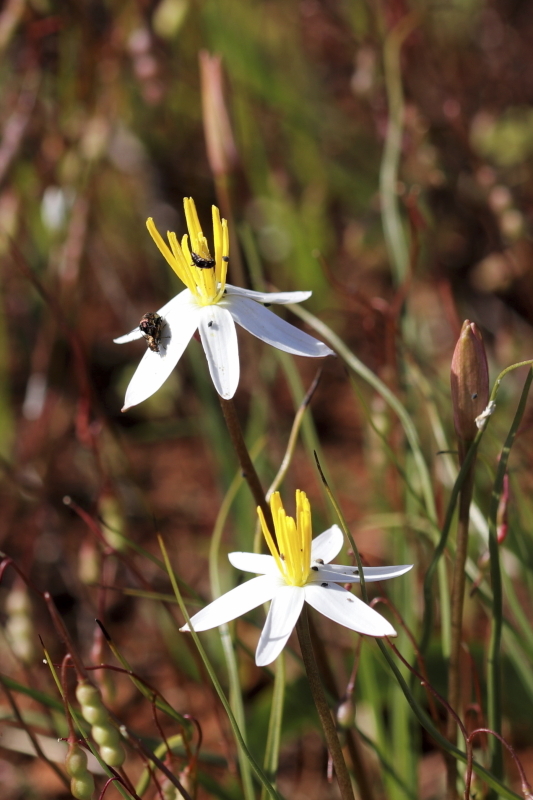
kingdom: Plantae
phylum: Tracheophyta
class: Liliopsida
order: Asparagales
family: Hypoxidaceae
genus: Pauridia
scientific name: Pauridia serrata
